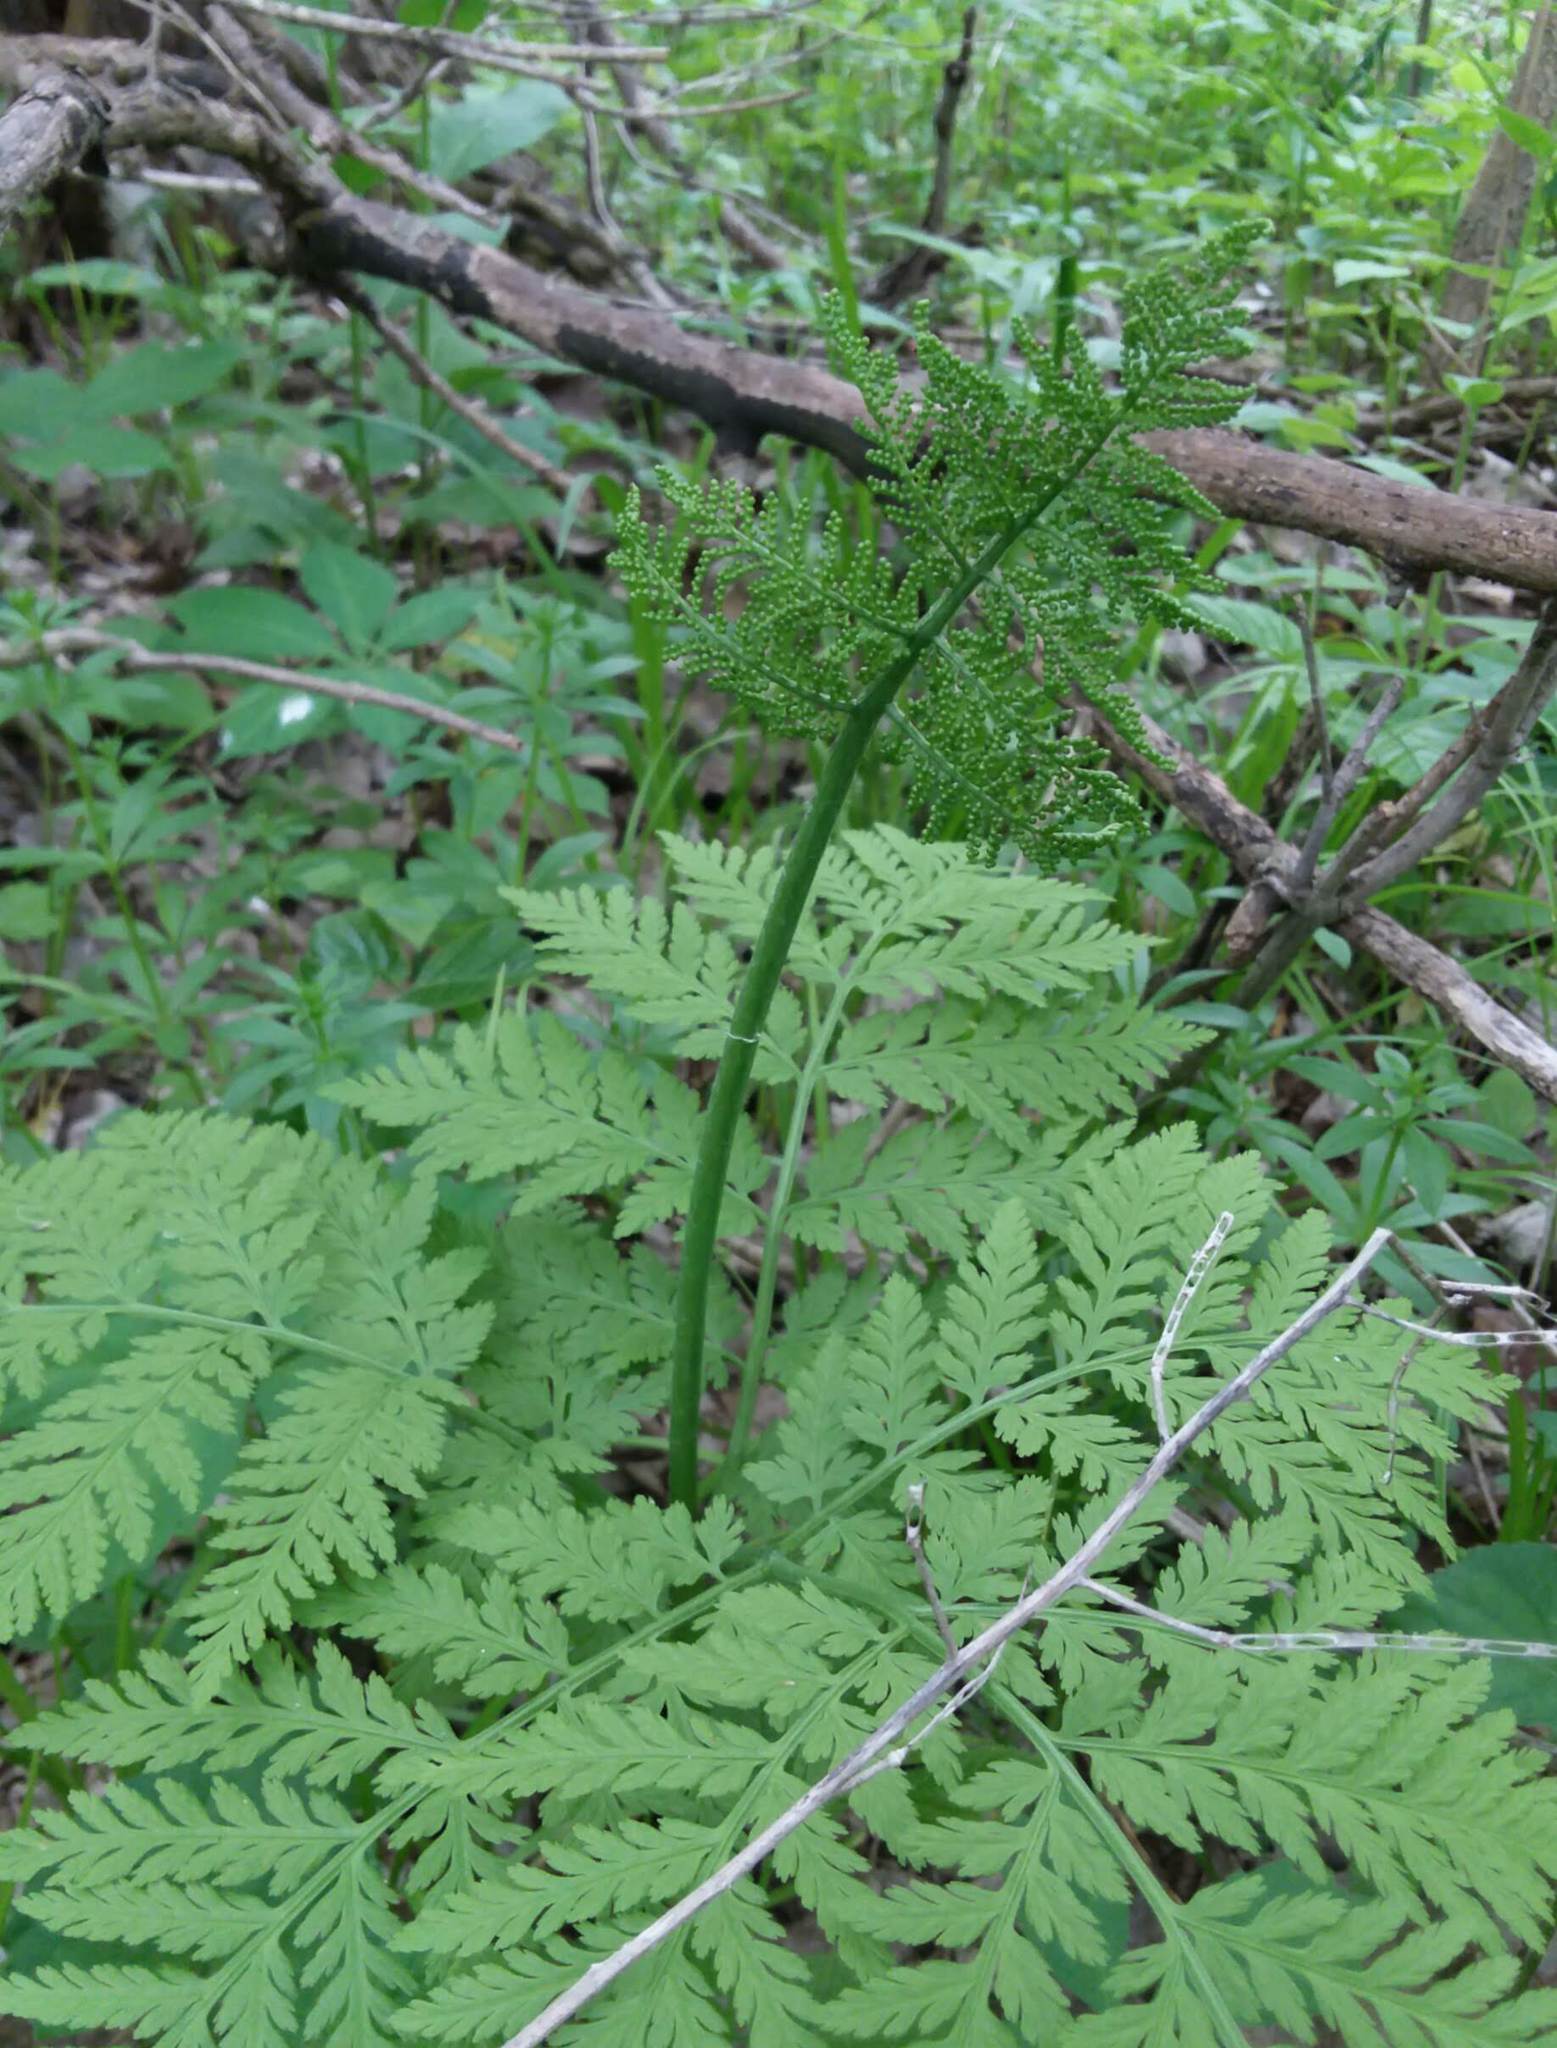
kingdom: Plantae
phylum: Tracheophyta
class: Polypodiopsida
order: Ophioglossales
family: Ophioglossaceae
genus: Botrypus
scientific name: Botrypus virginianus
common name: Common grapefern
